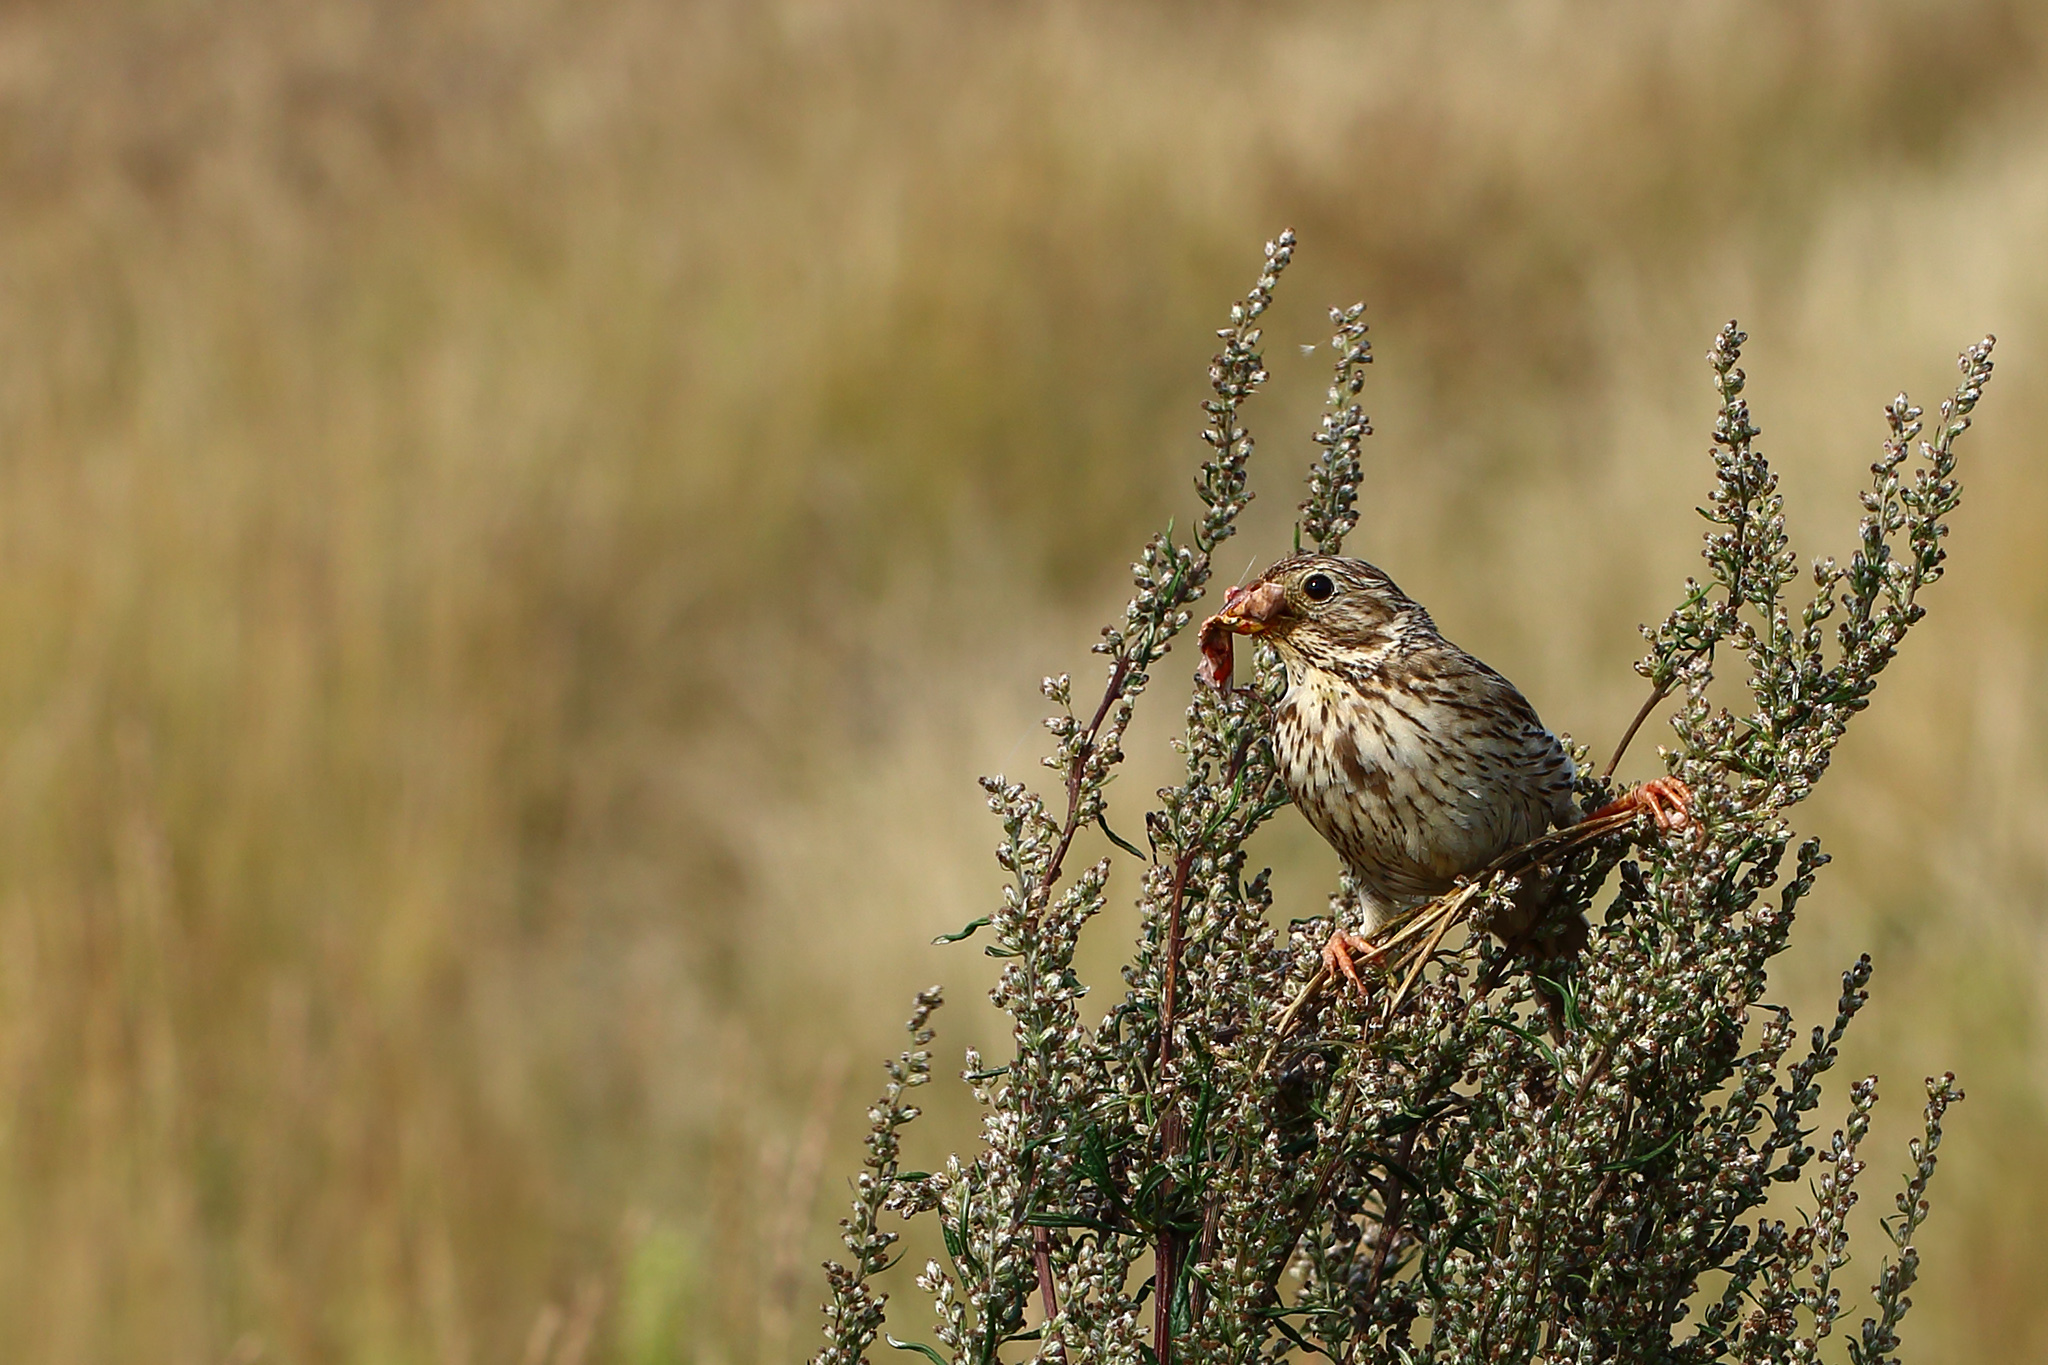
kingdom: Animalia
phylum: Chordata
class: Aves
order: Passeriformes
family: Emberizidae
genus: Emberiza
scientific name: Emberiza calandra
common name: Corn bunting
